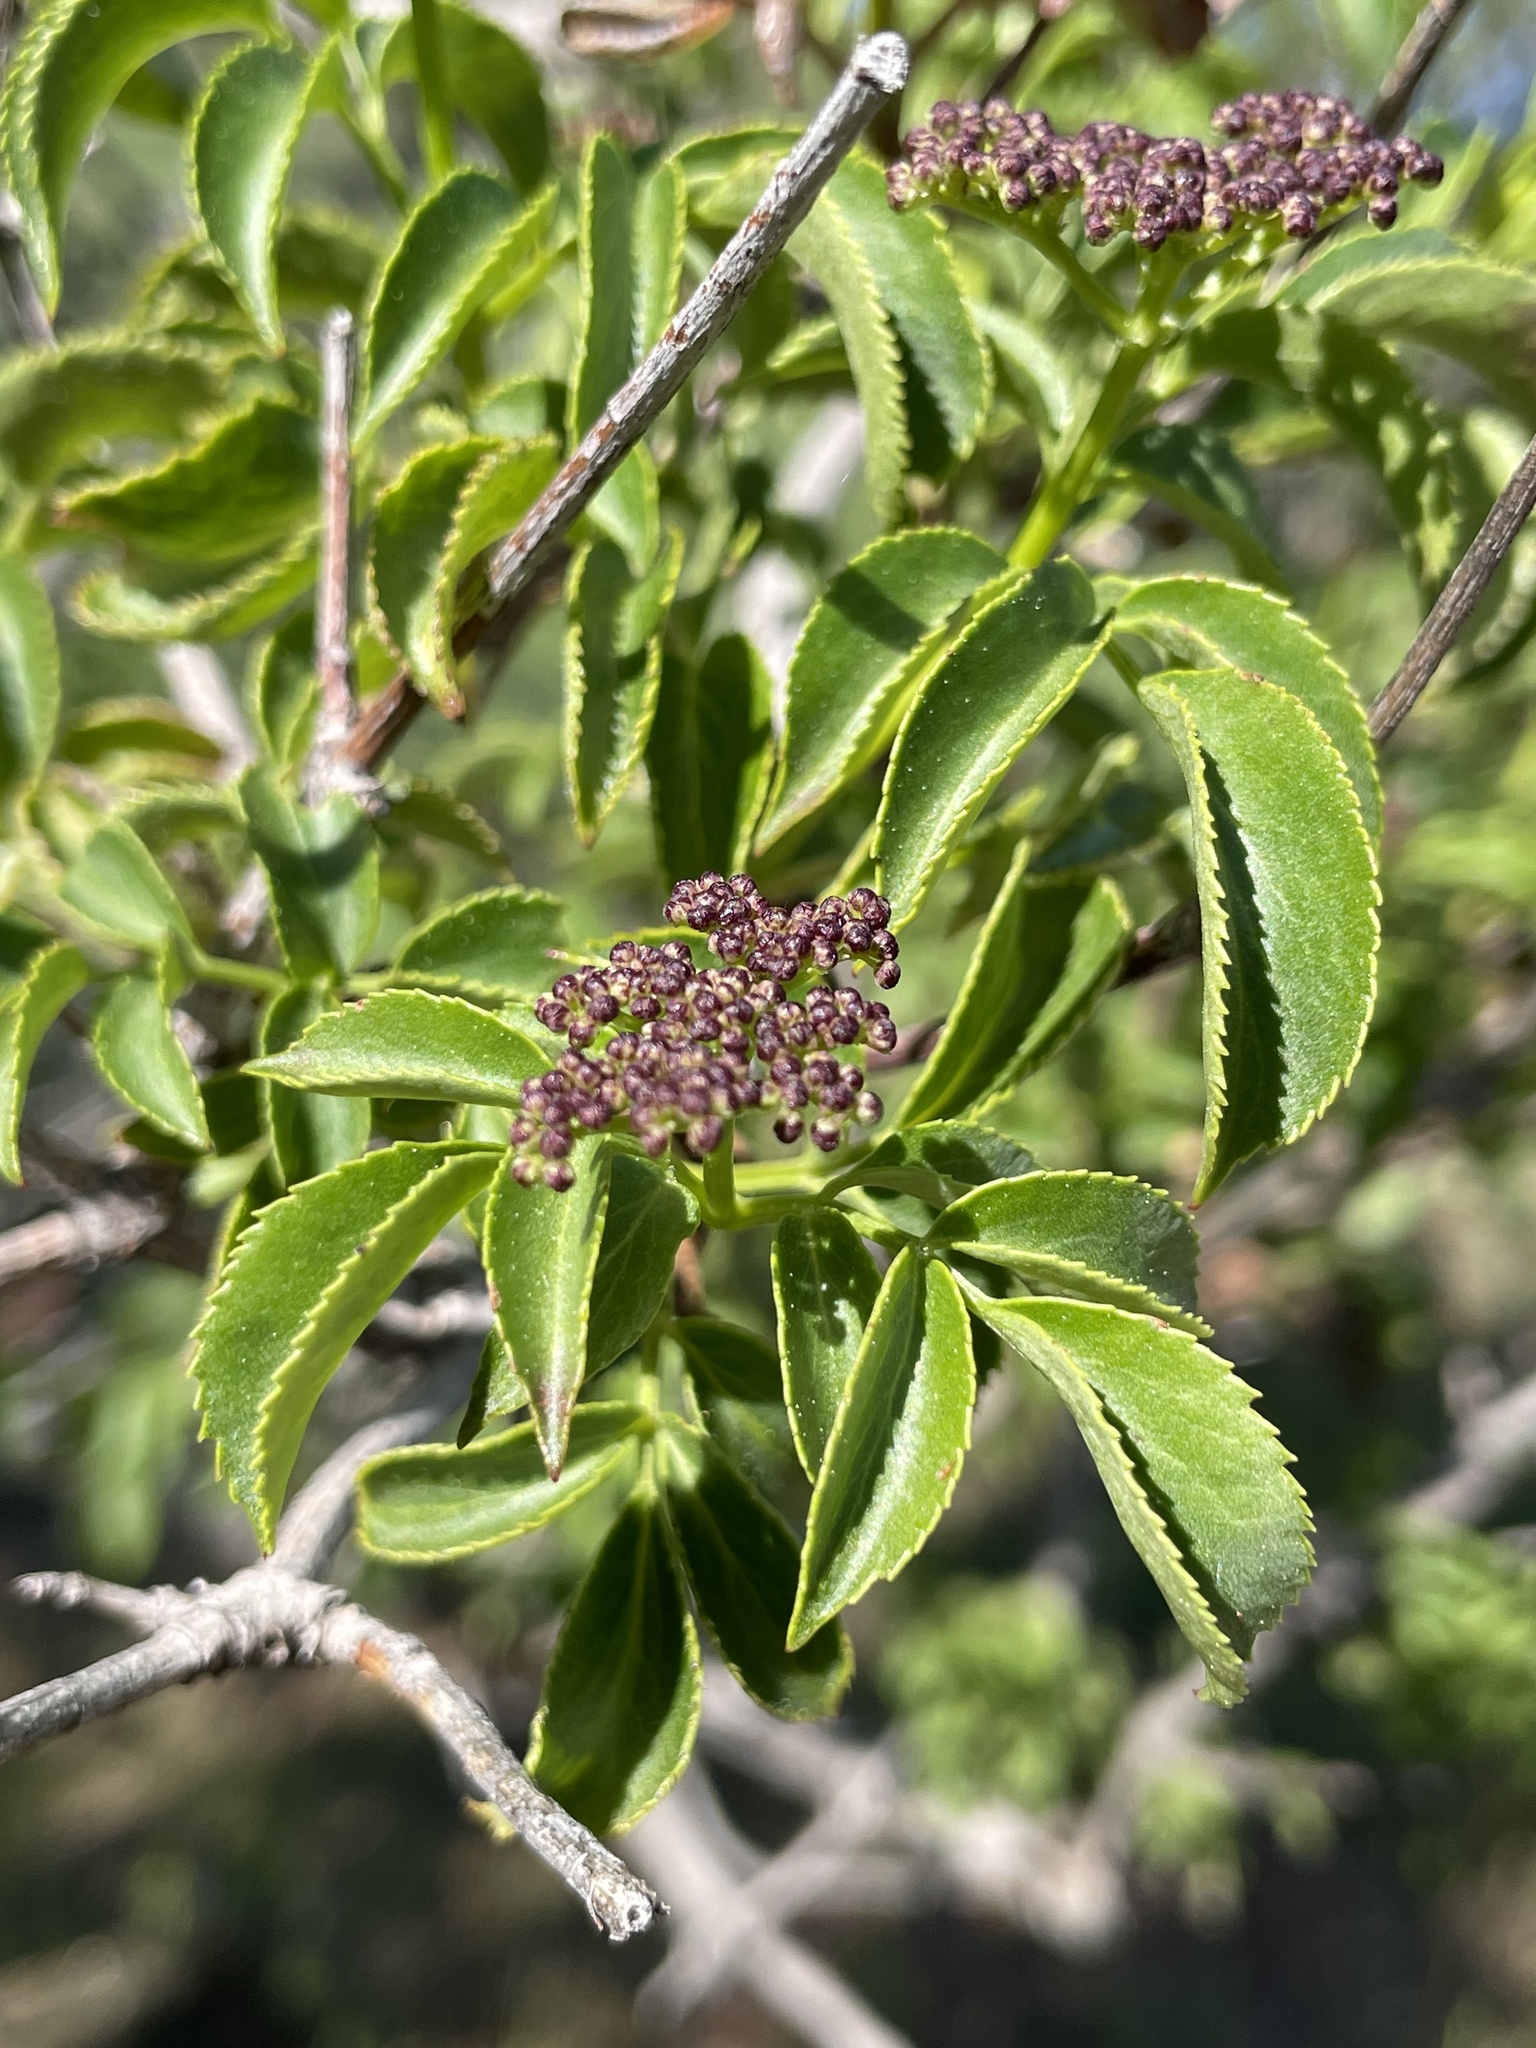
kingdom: Plantae
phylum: Tracheophyta
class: Magnoliopsida
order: Dipsacales
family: Viburnaceae
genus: Sambucus
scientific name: Sambucus cerulea
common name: Blue elder
